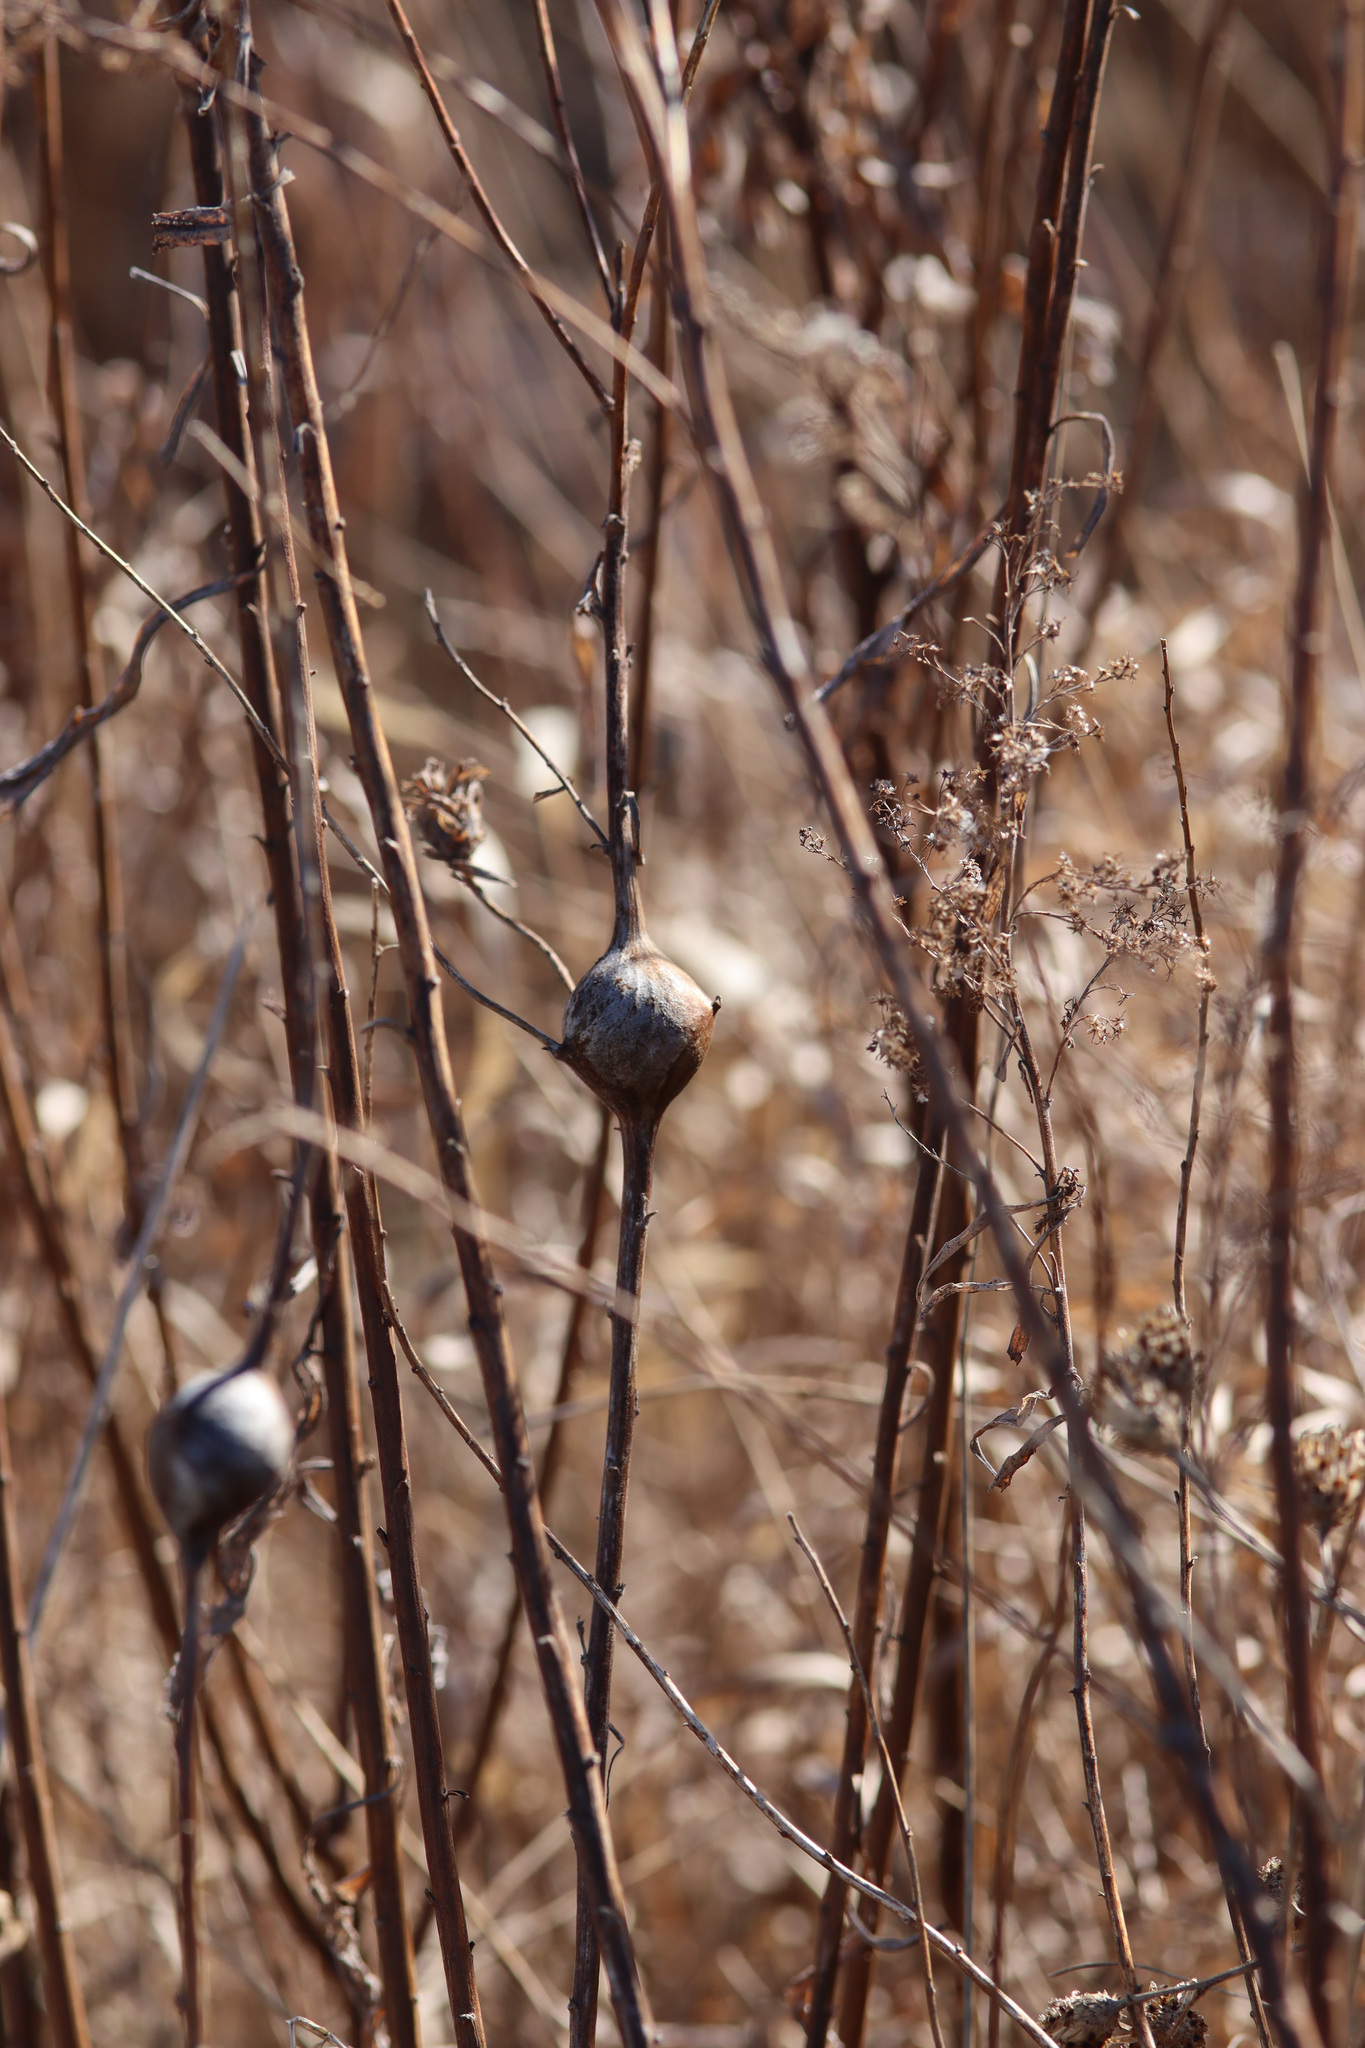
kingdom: Animalia
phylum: Arthropoda
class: Insecta
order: Diptera
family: Tephritidae
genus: Eurosta
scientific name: Eurosta solidaginis
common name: Goldenrod gall fly
